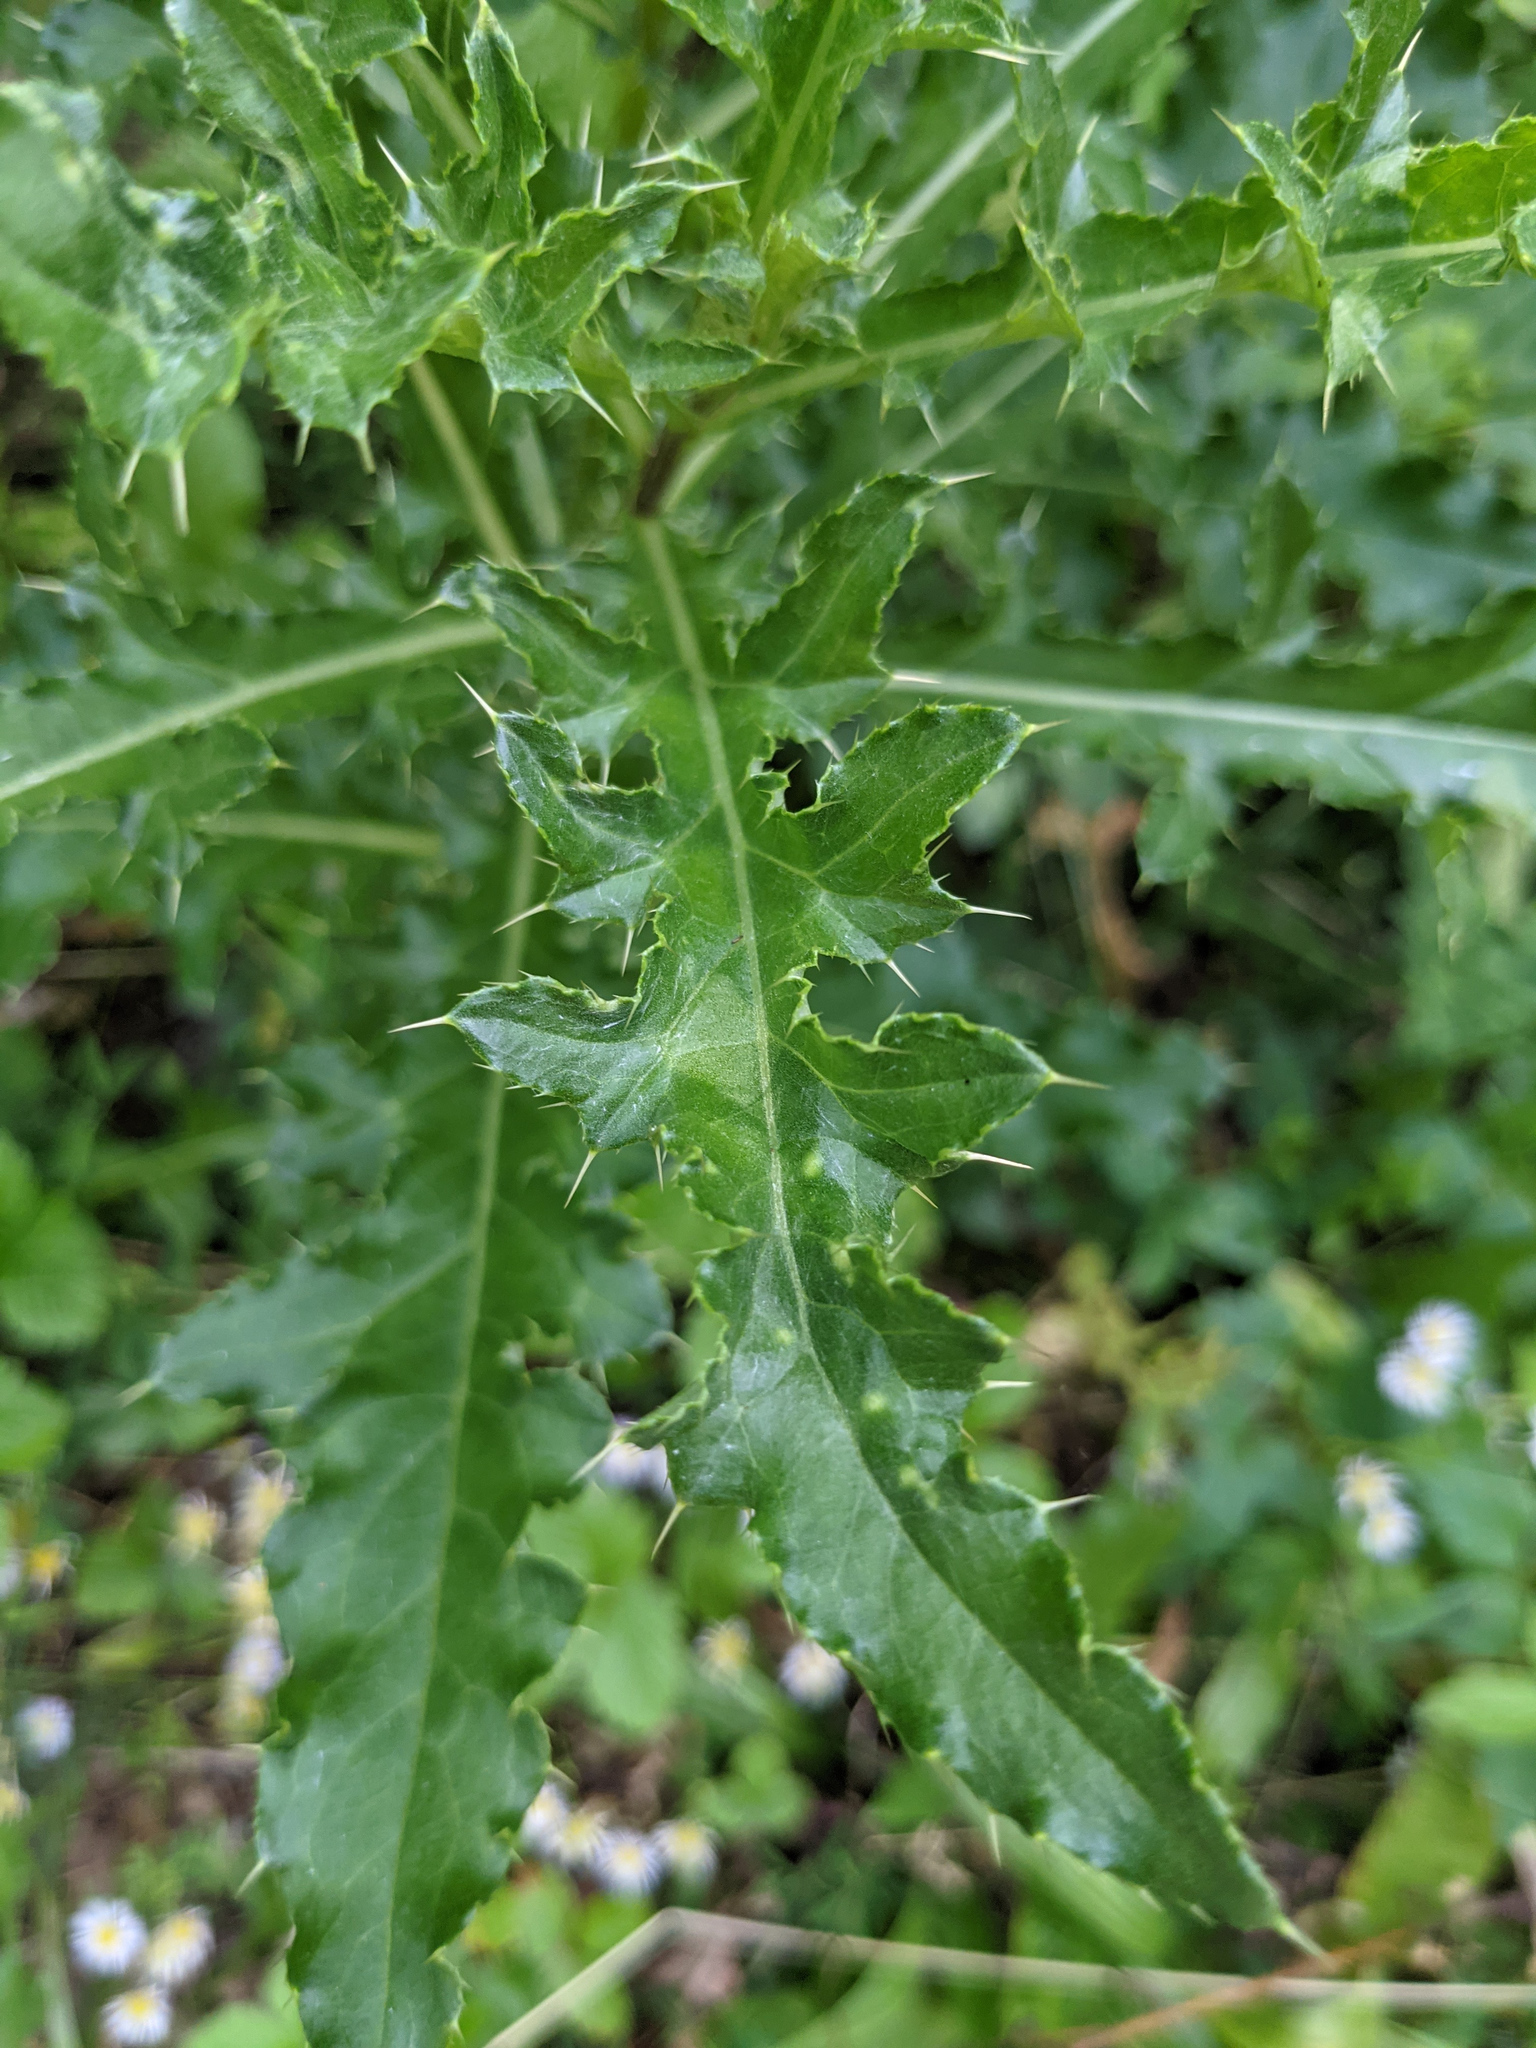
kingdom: Plantae
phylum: Tracheophyta
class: Magnoliopsida
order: Asterales
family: Asteraceae
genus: Cirsium
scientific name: Cirsium arvense
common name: Creeping thistle
